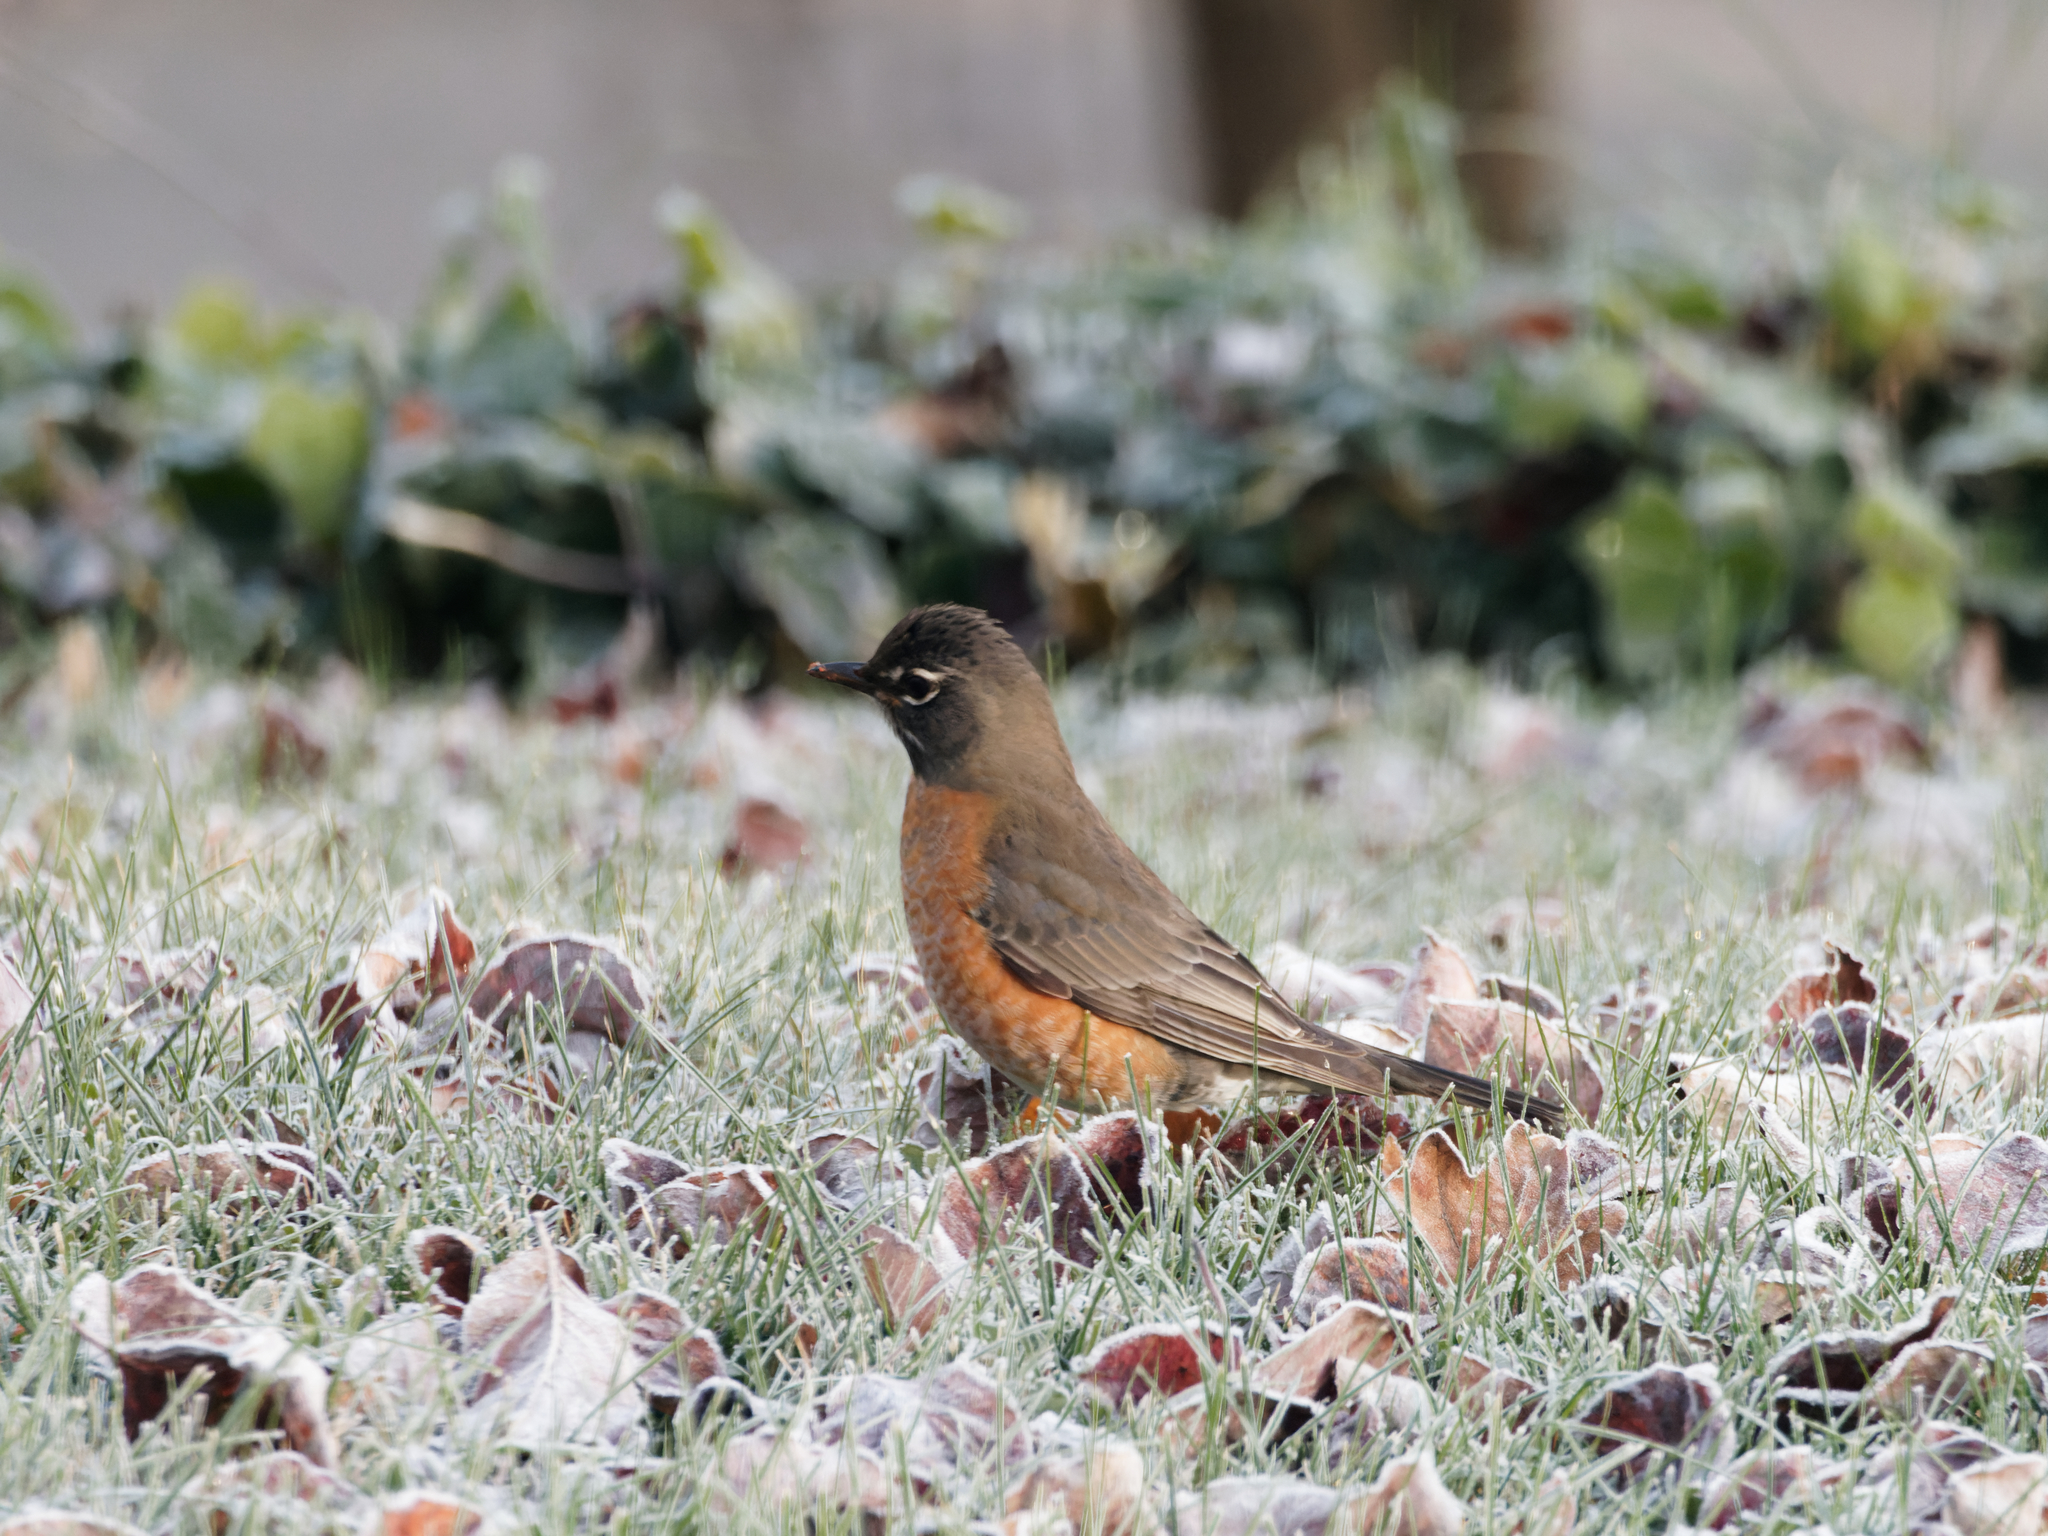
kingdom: Animalia
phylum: Chordata
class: Aves
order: Passeriformes
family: Turdidae
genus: Turdus
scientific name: Turdus migratorius
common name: American robin
